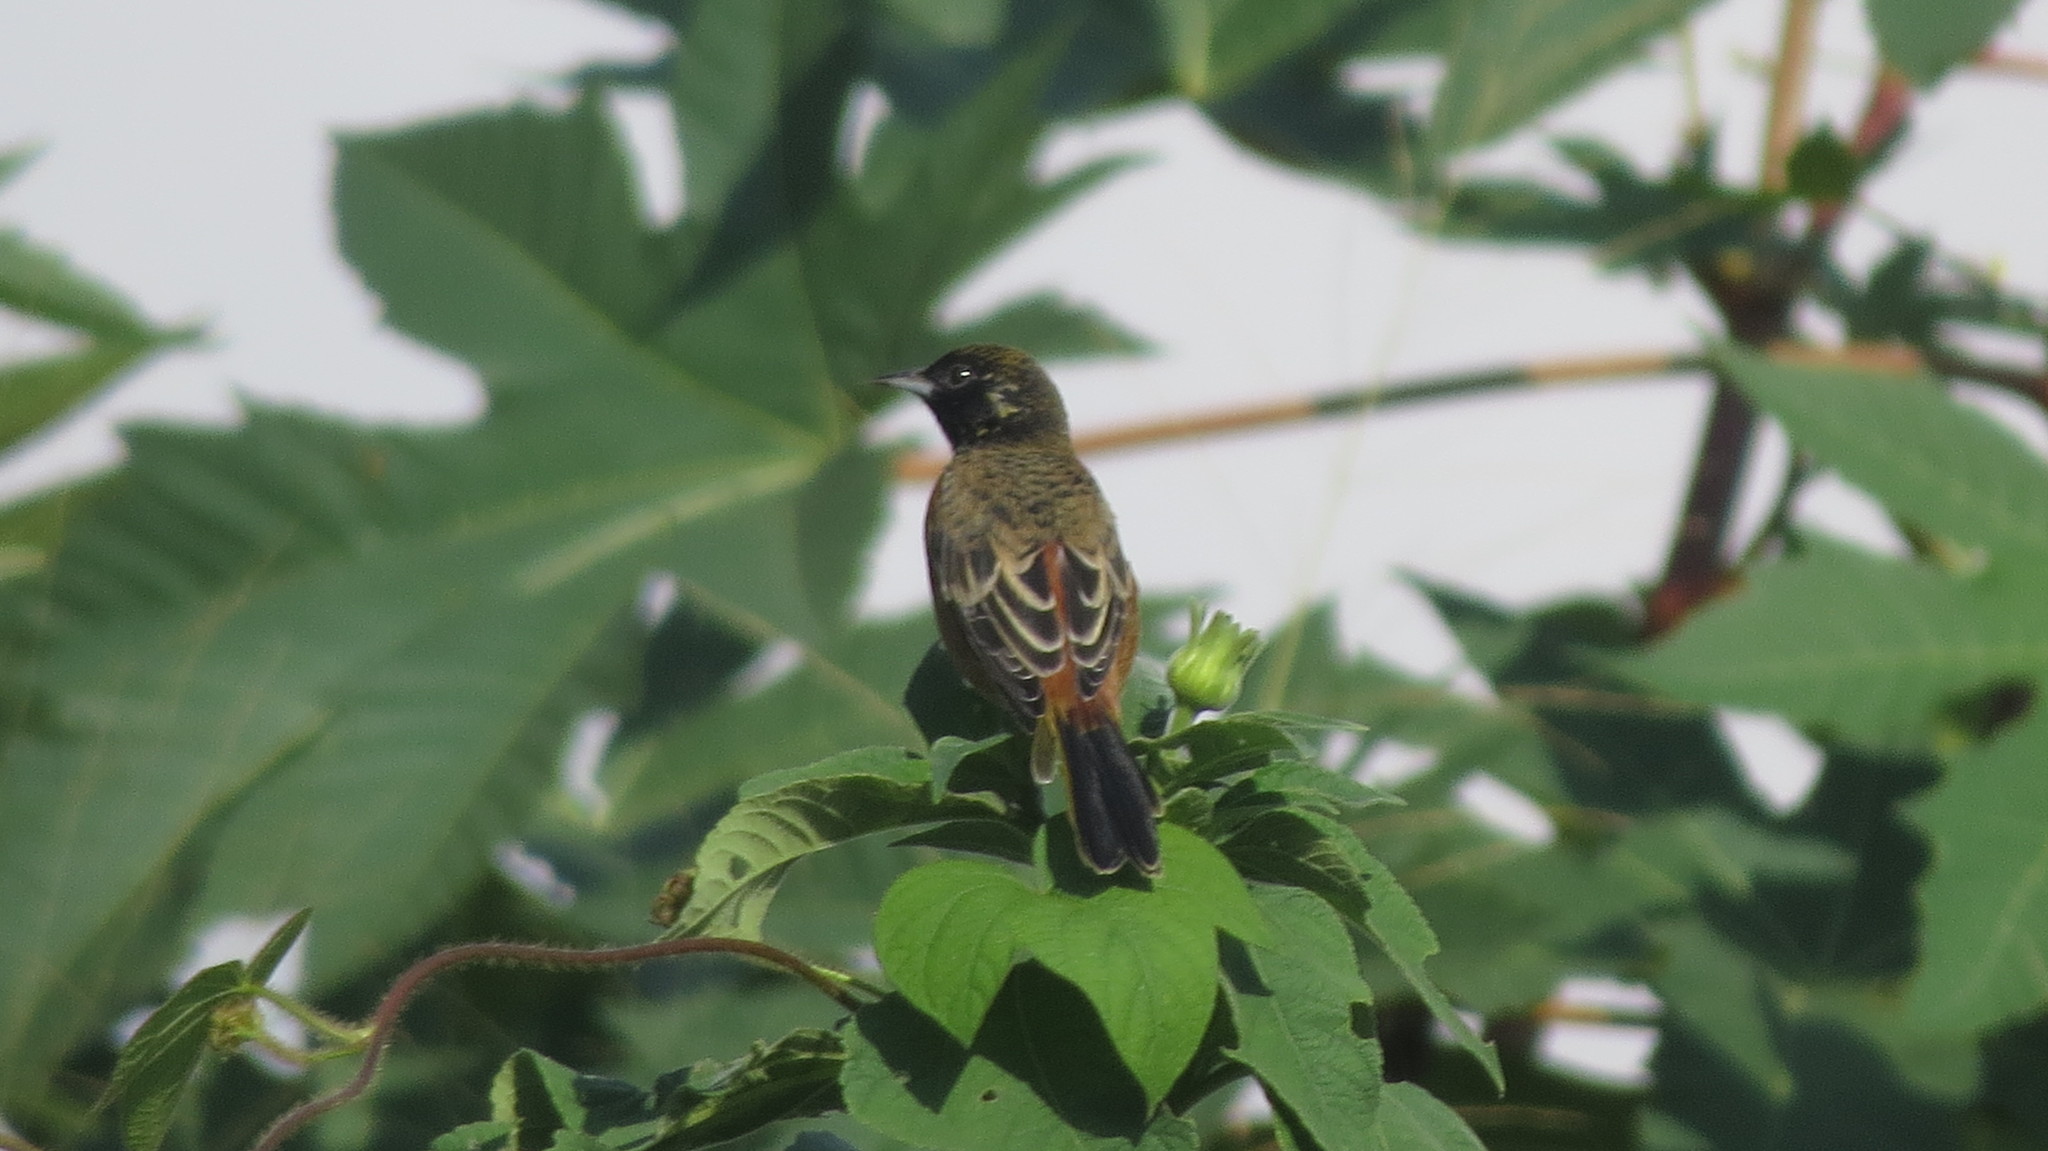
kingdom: Animalia
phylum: Chordata
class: Aves
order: Passeriformes
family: Icteridae
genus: Icterus
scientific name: Icterus spurius
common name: Orchard oriole
